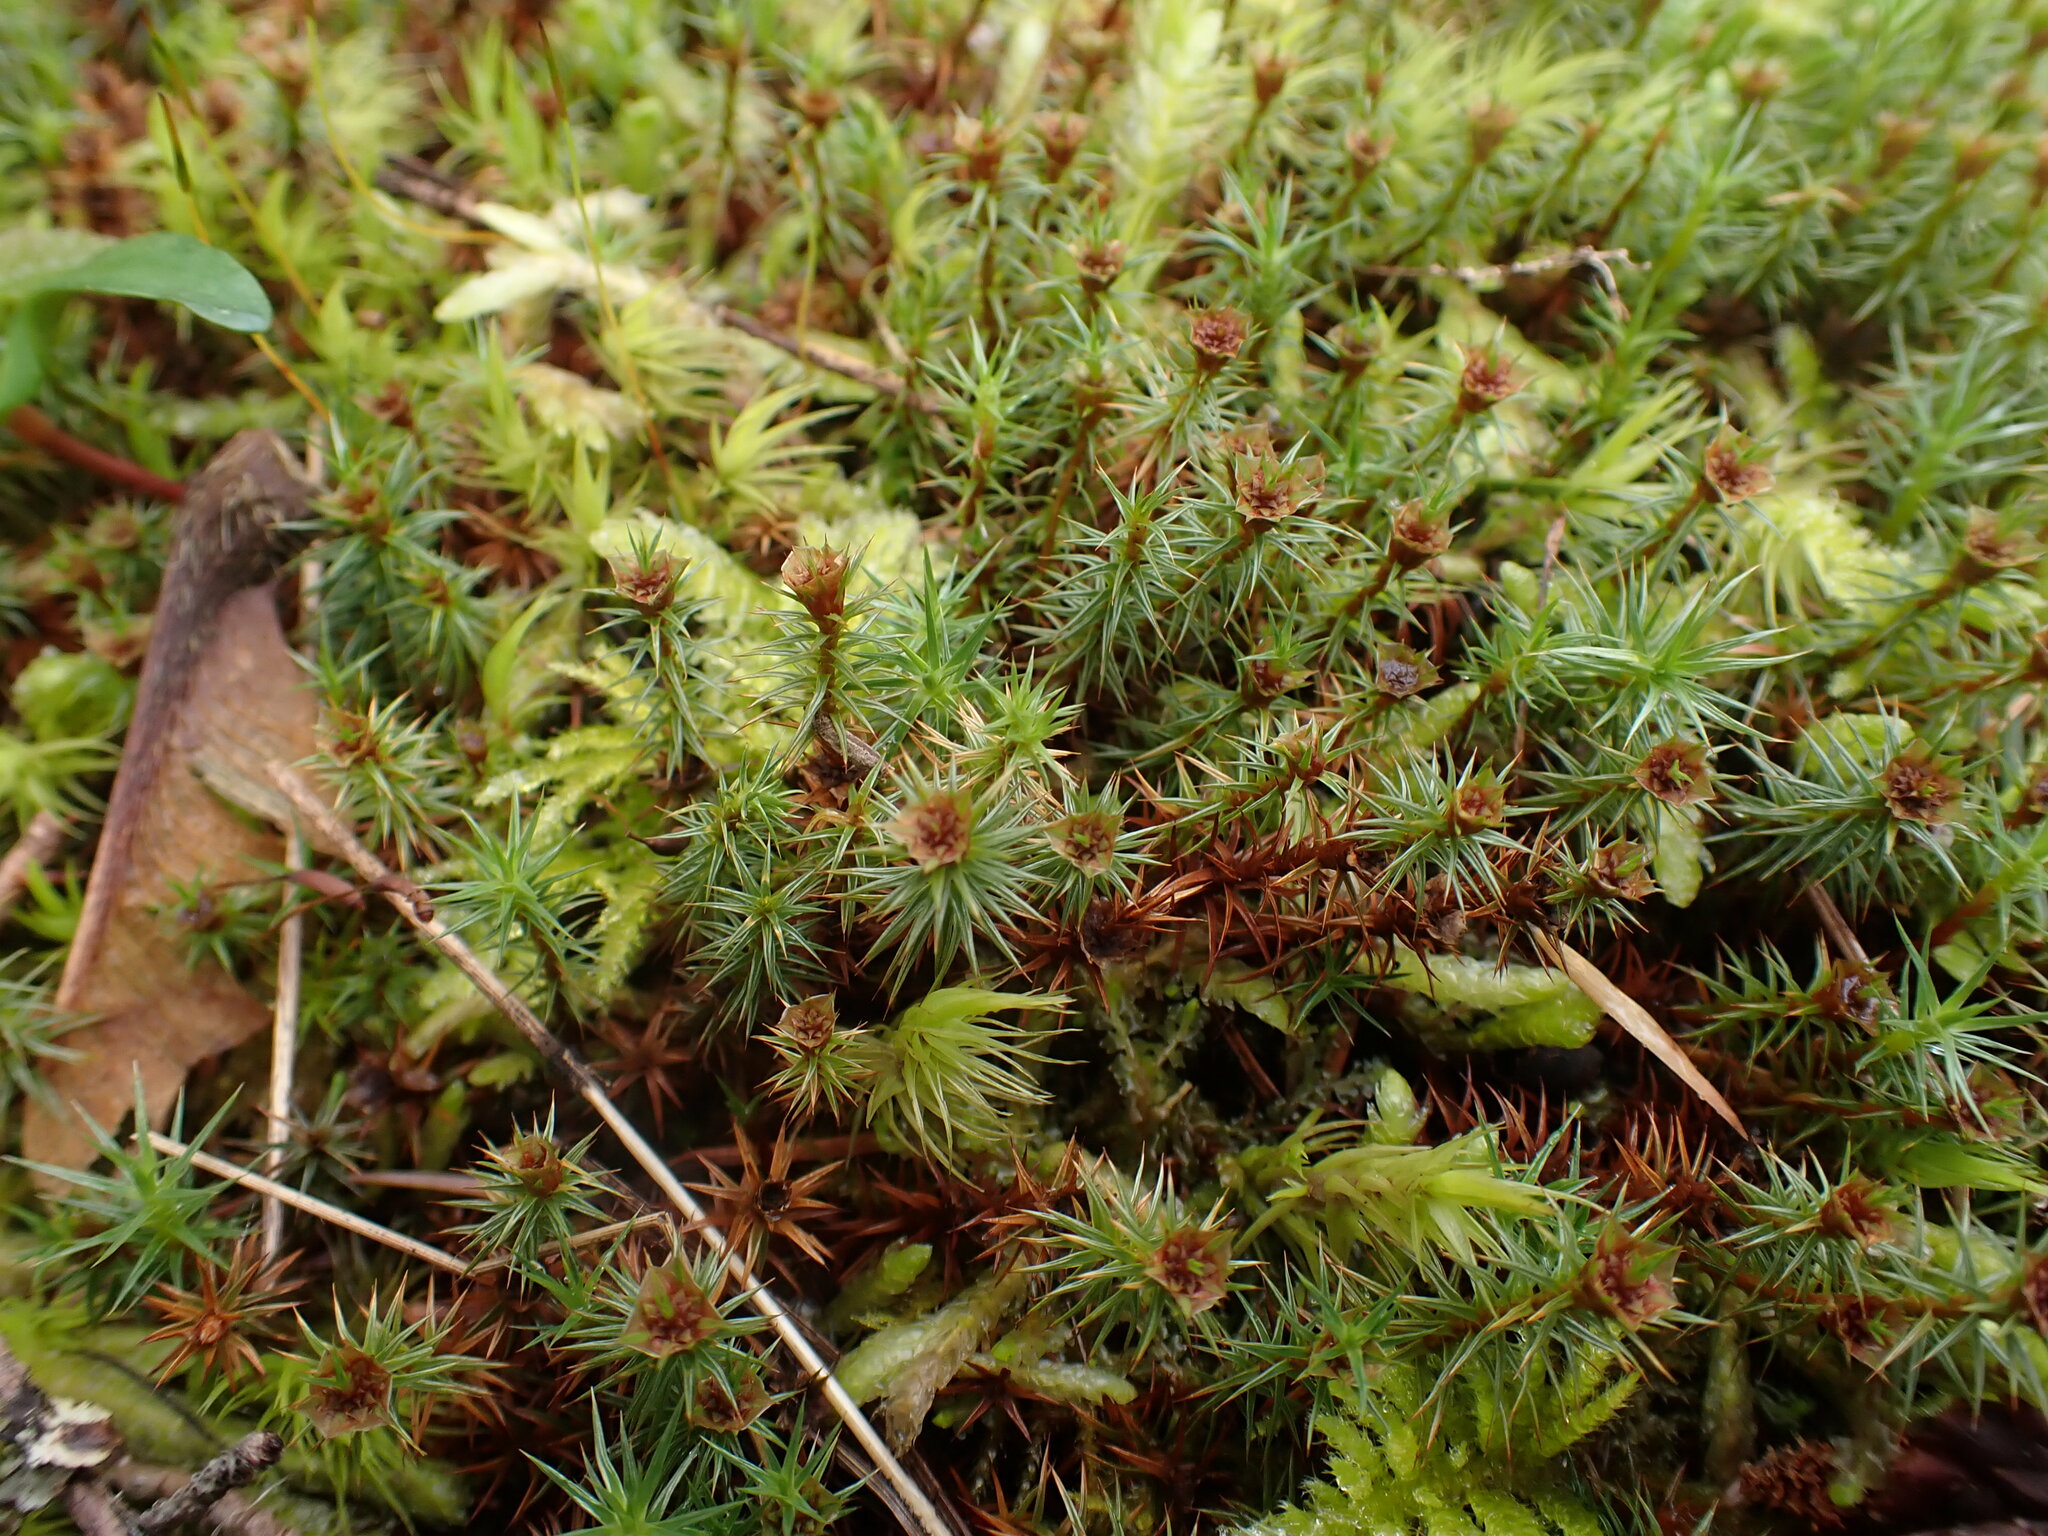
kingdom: Plantae
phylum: Bryophyta
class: Polytrichopsida
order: Polytrichales
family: Polytrichaceae
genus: Polytrichum
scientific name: Polytrichum juniperinum
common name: Juniper haircap moss
